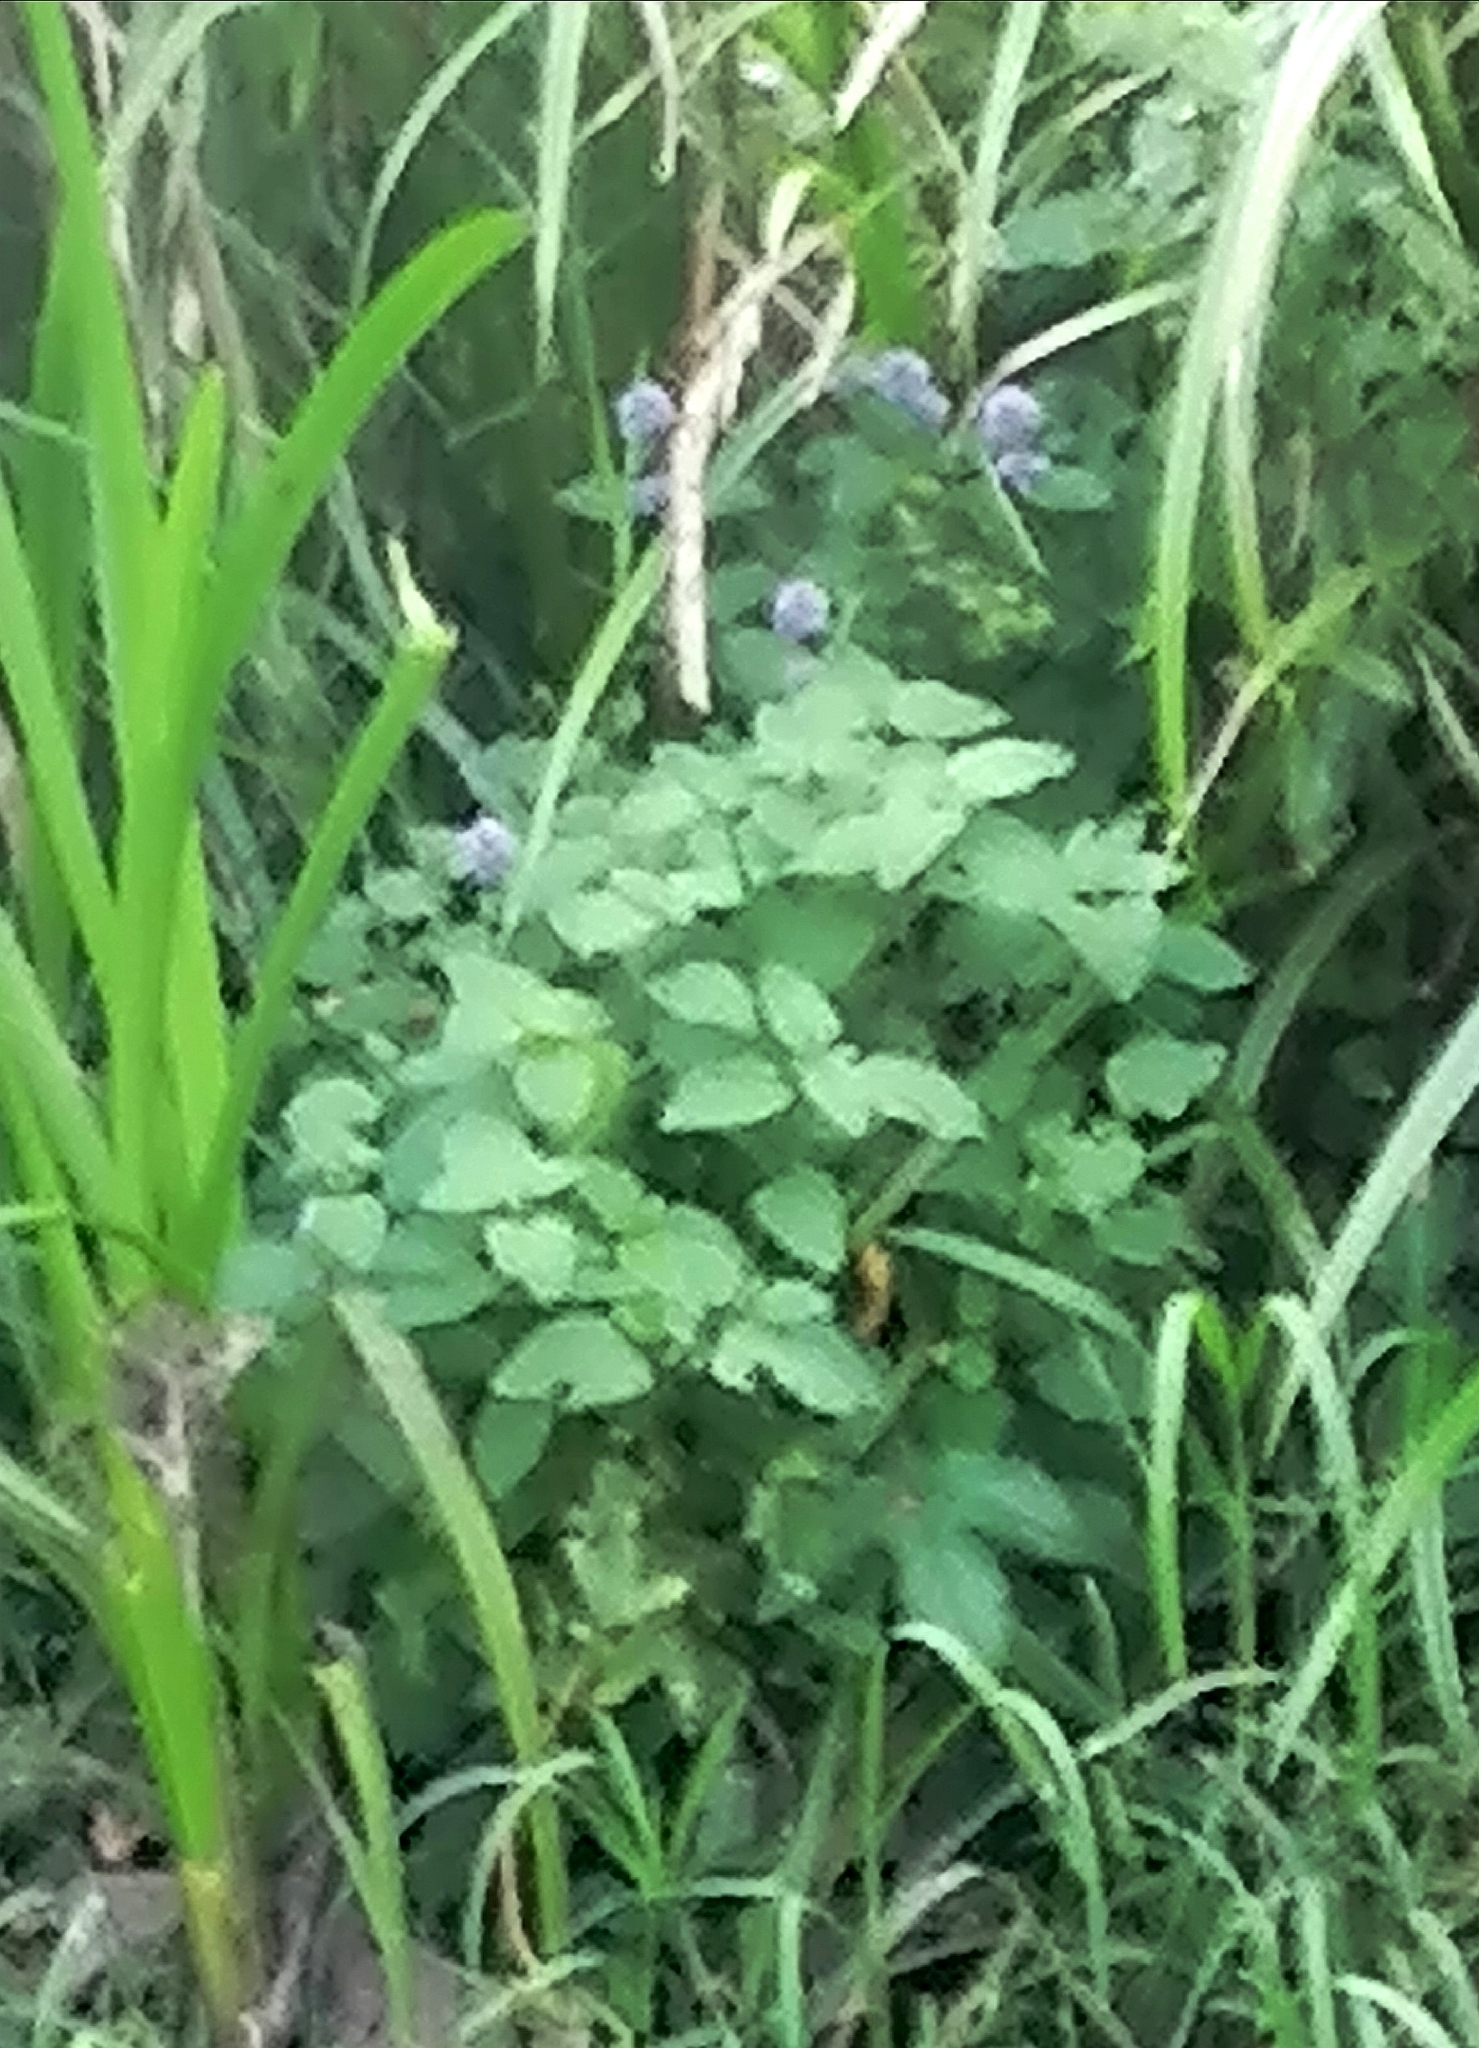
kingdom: Plantae
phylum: Tracheophyta
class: Magnoliopsida
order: Lamiales
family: Lamiaceae
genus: Mentha
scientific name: Mentha aquatica
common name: Water mint
